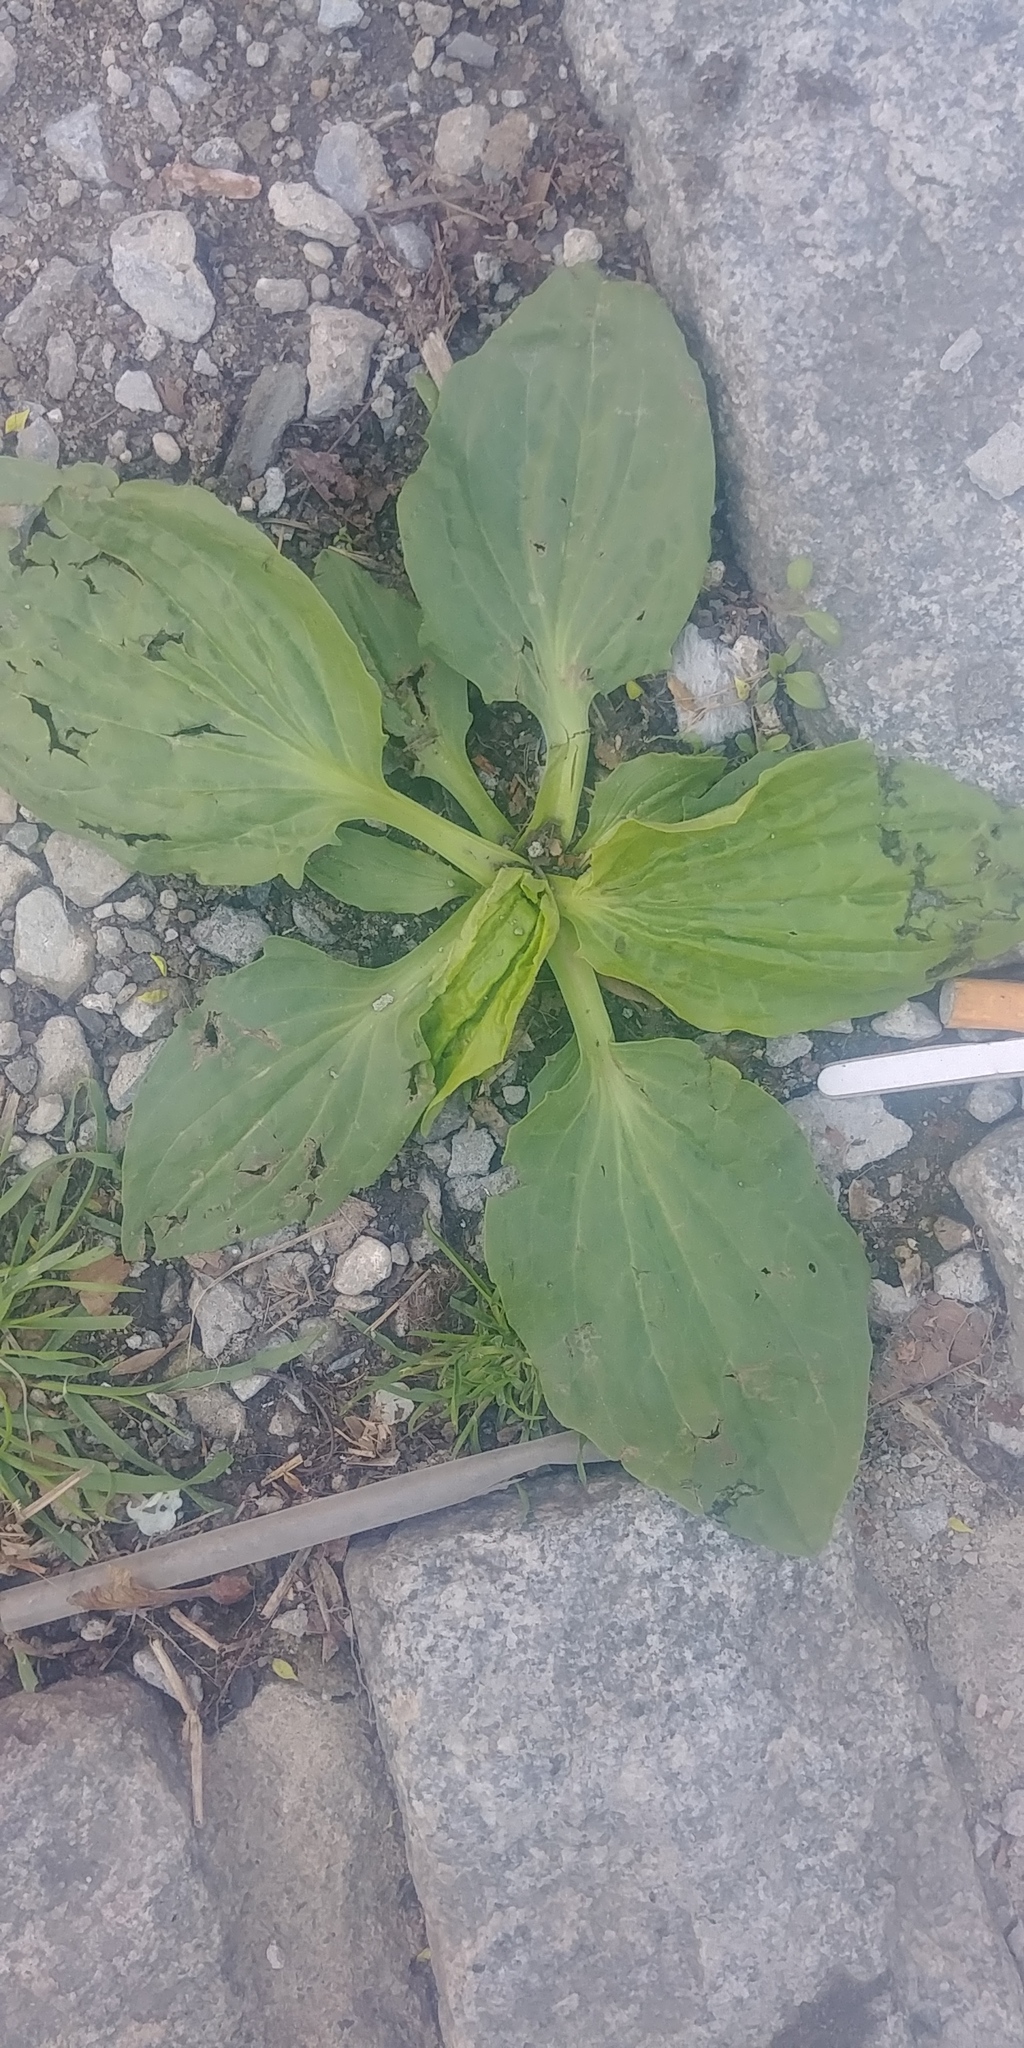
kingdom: Plantae
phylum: Tracheophyta
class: Magnoliopsida
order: Lamiales
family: Plantaginaceae
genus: Plantago
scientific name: Plantago major
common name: Common plantain
